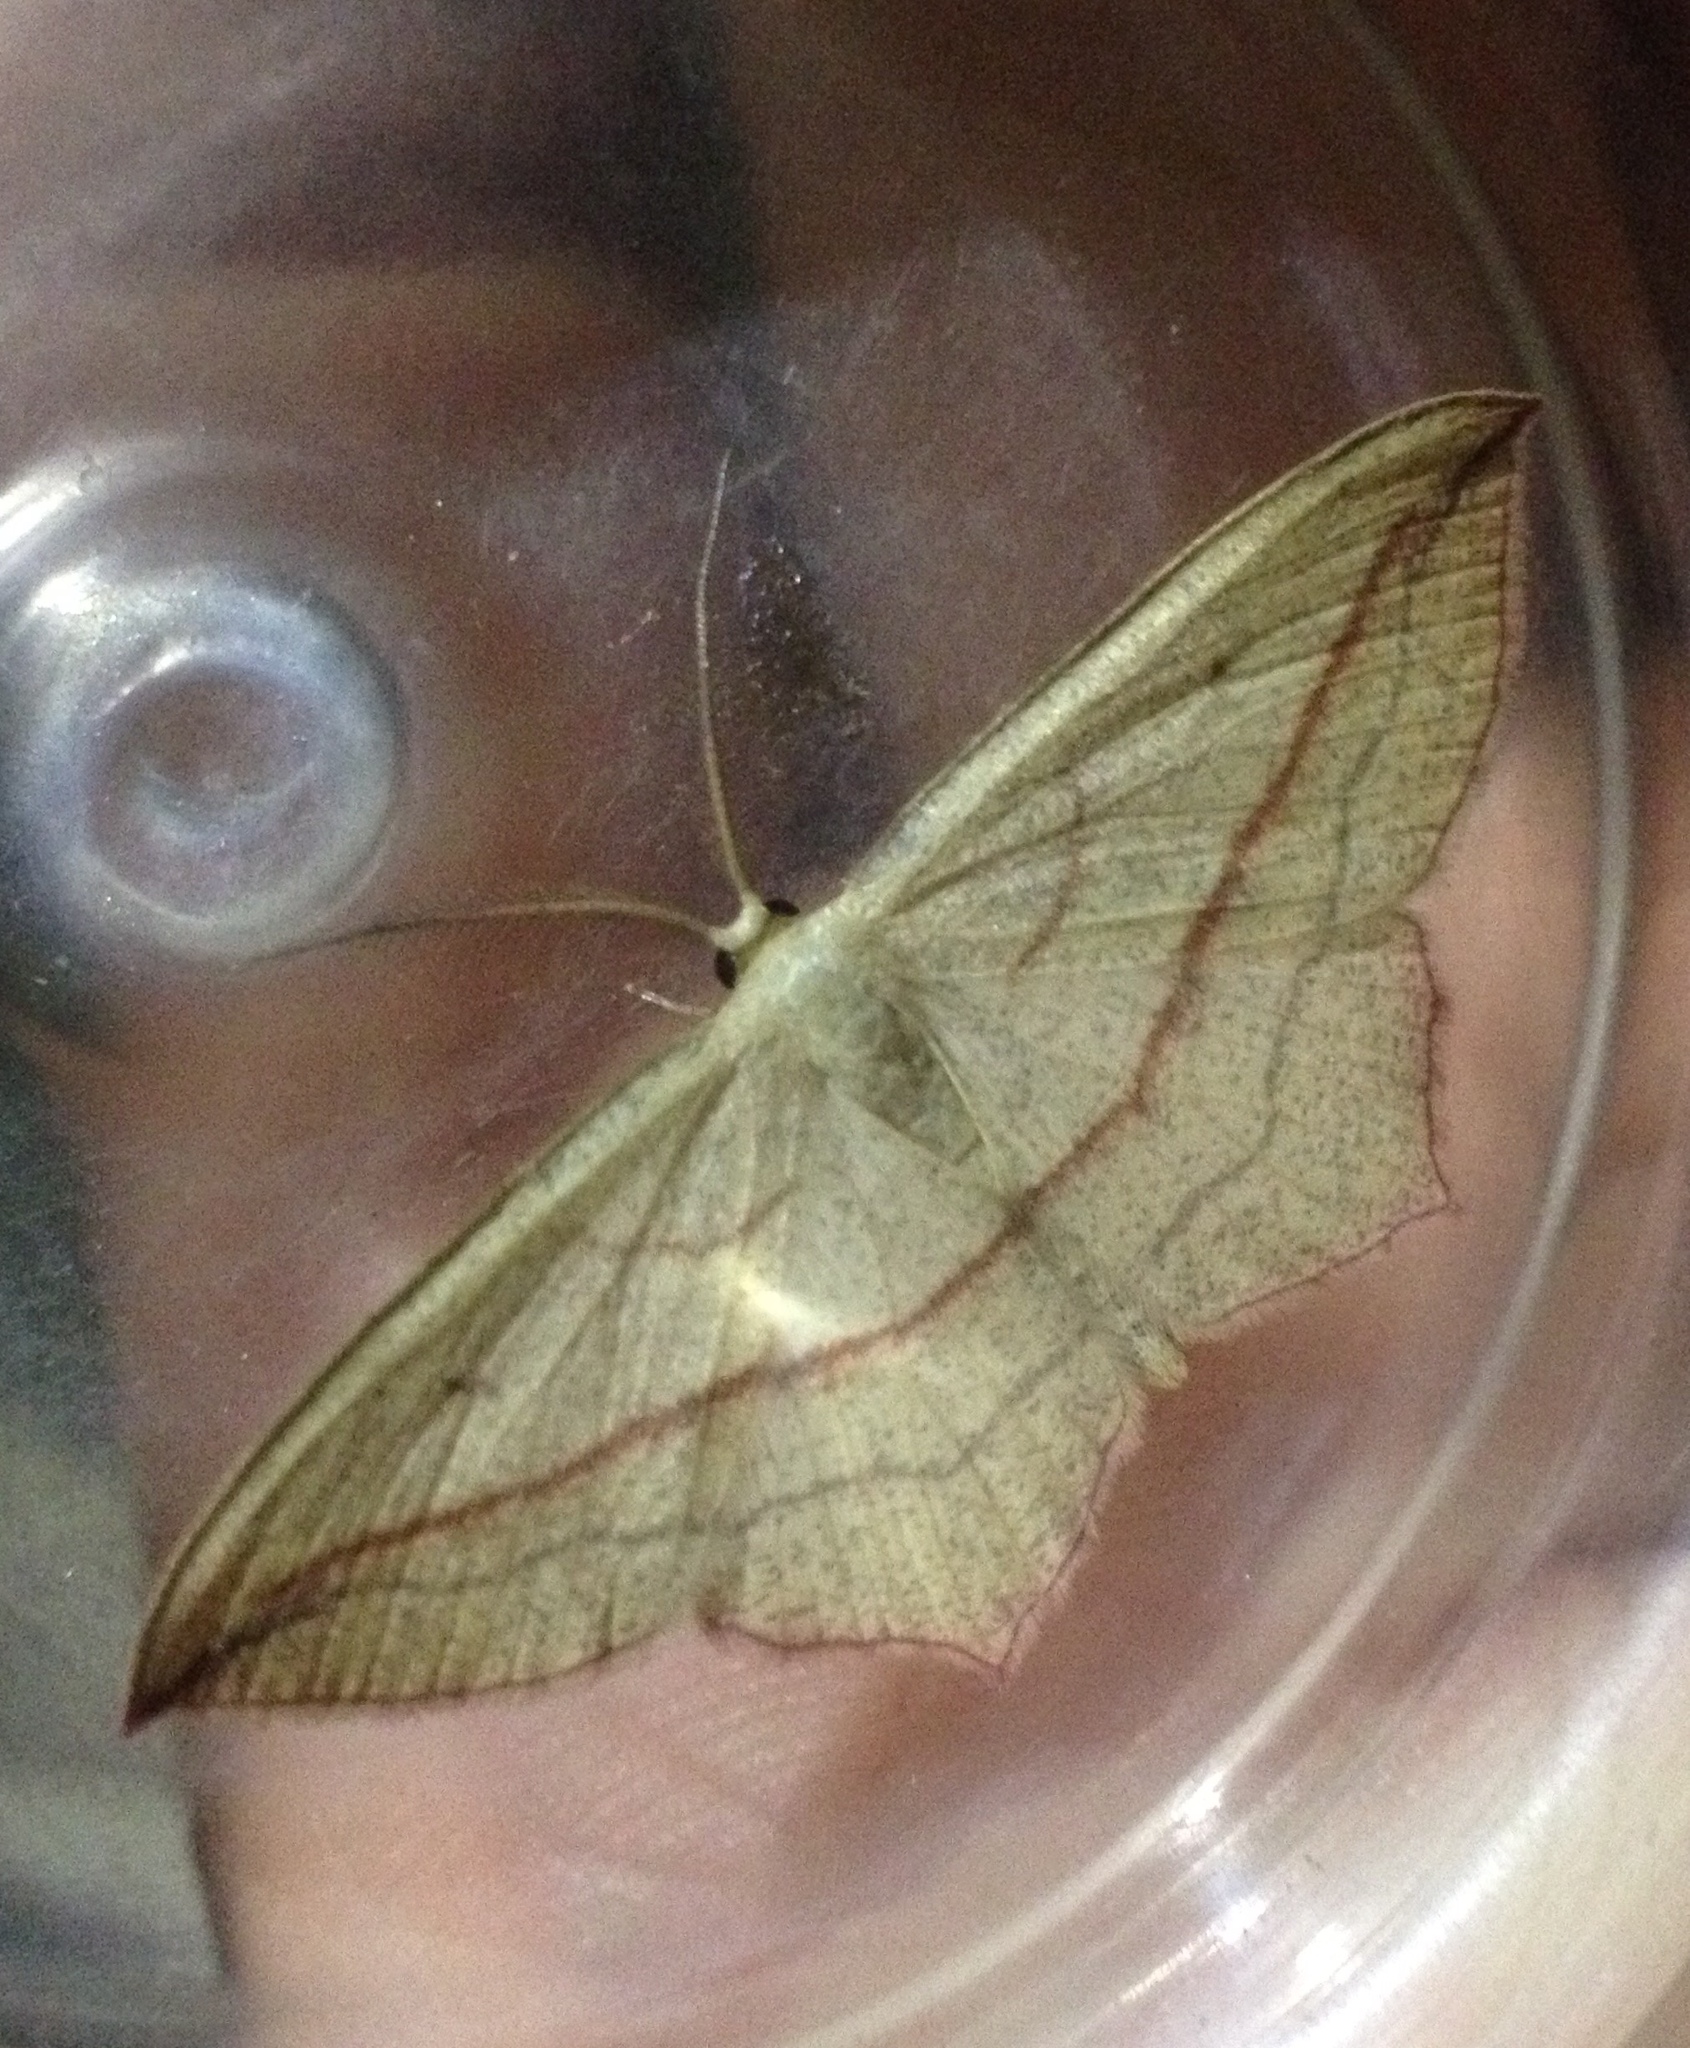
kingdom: Animalia
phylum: Arthropoda
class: Insecta
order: Lepidoptera
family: Geometridae
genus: Timandra
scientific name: Timandra comae
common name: Blood-vein
